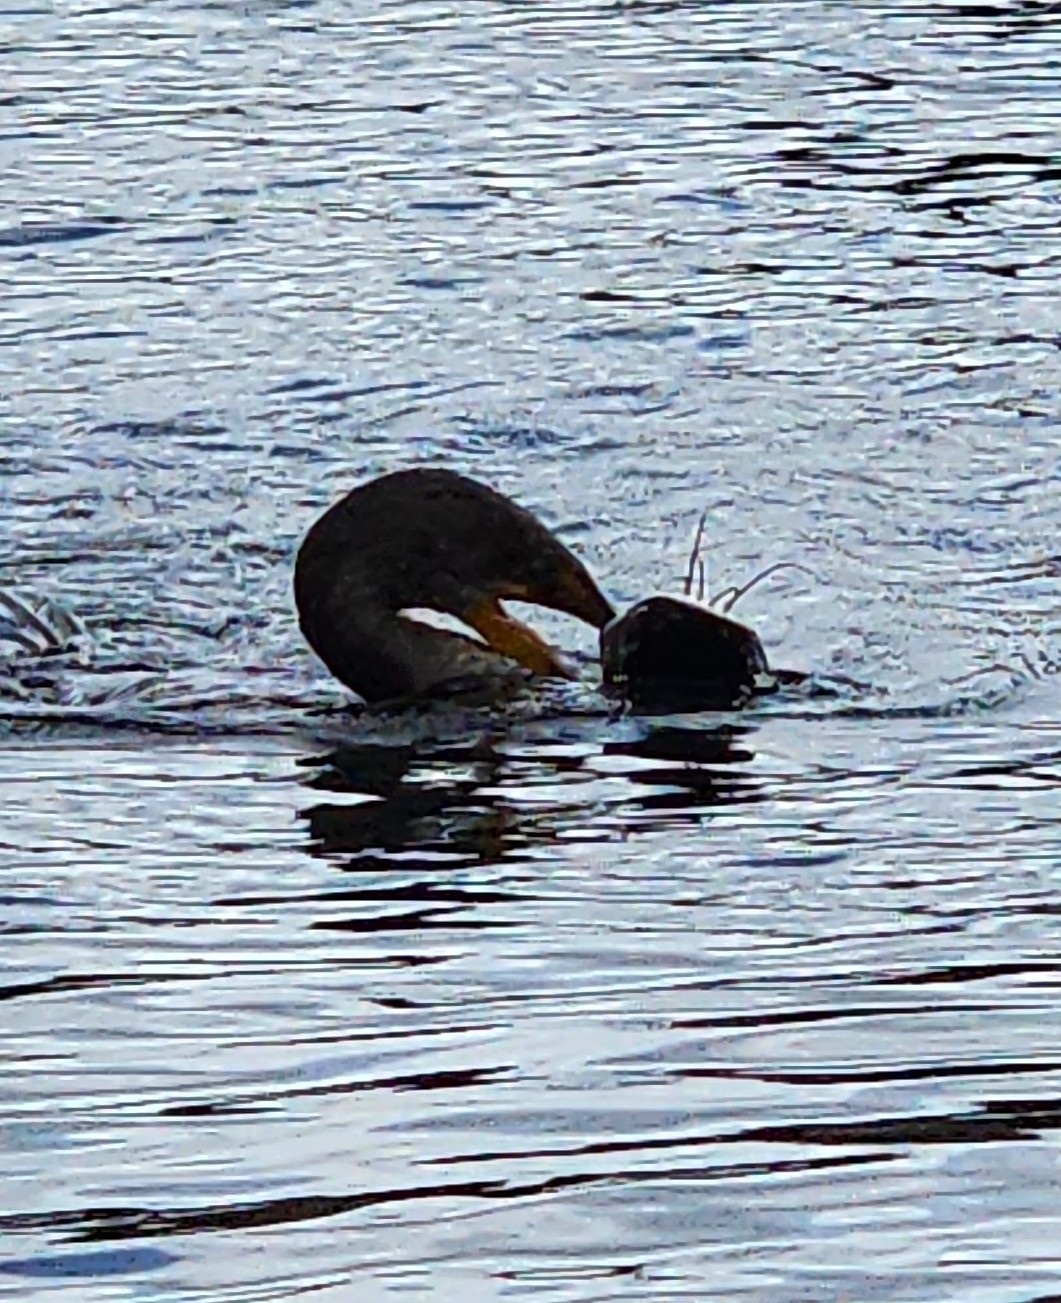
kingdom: Animalia
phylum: Chordata
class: Aves
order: Suliformes
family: Phalacrocoracidae
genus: Phalacrocorax
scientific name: Phalacrocorax auritus
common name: Double-crested cormorant
